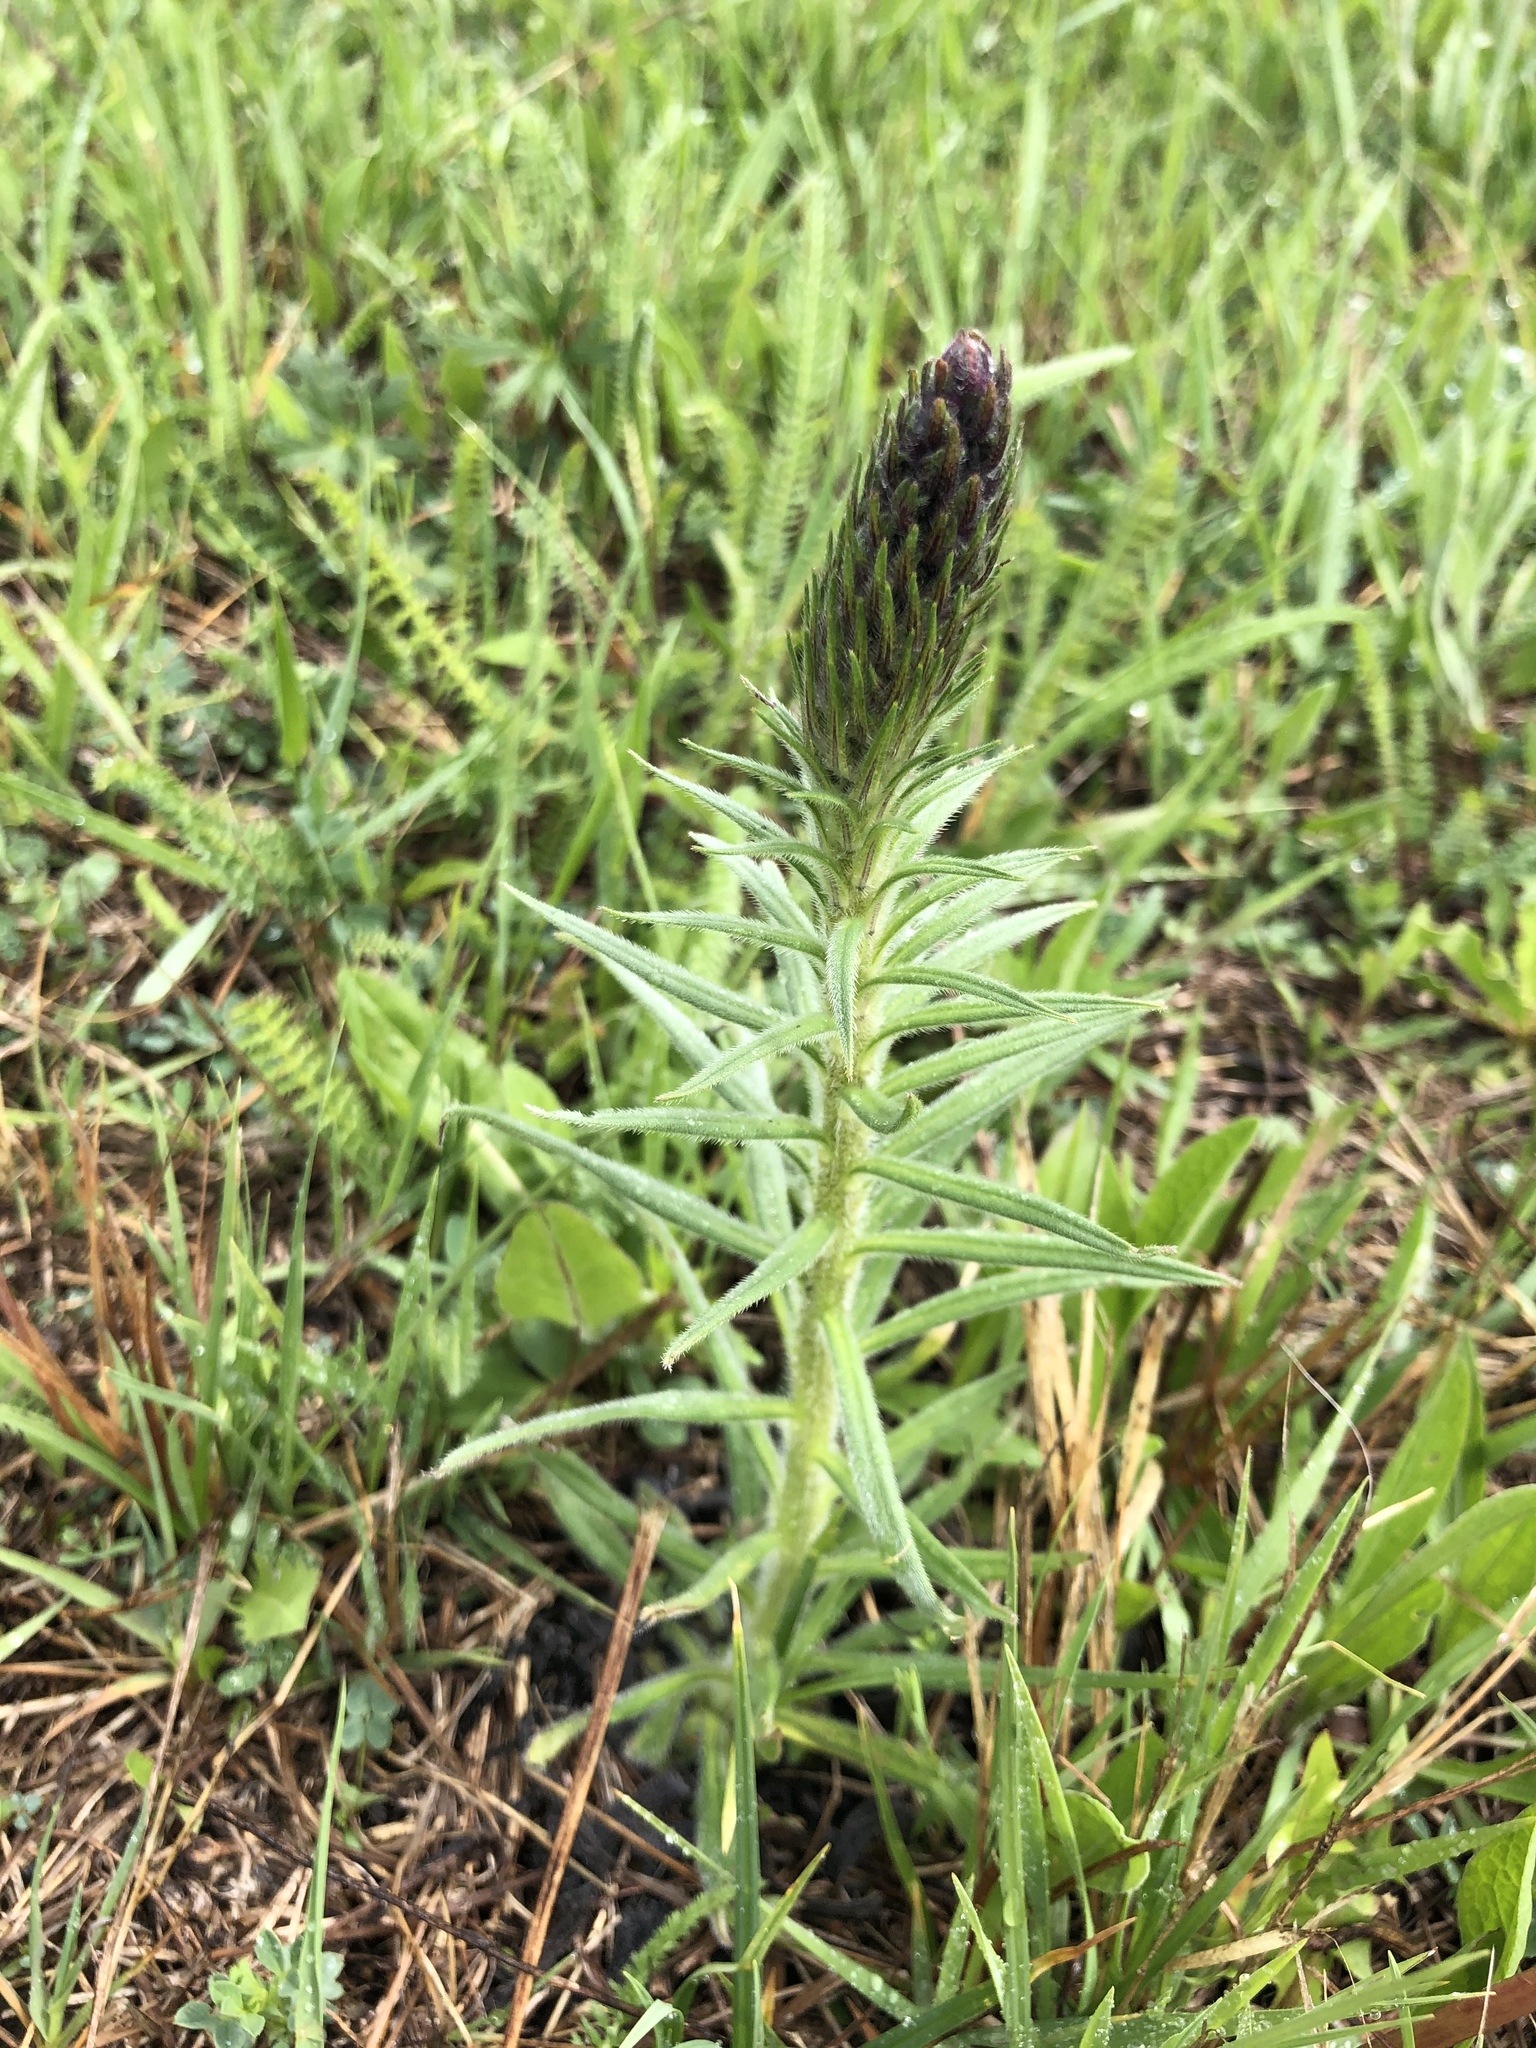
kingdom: Plantae
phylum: Tracheophyta
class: Magnoliopsida
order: Boraginales
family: Boraginaceae
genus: Pontechium
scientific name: Pontechium maculatum
